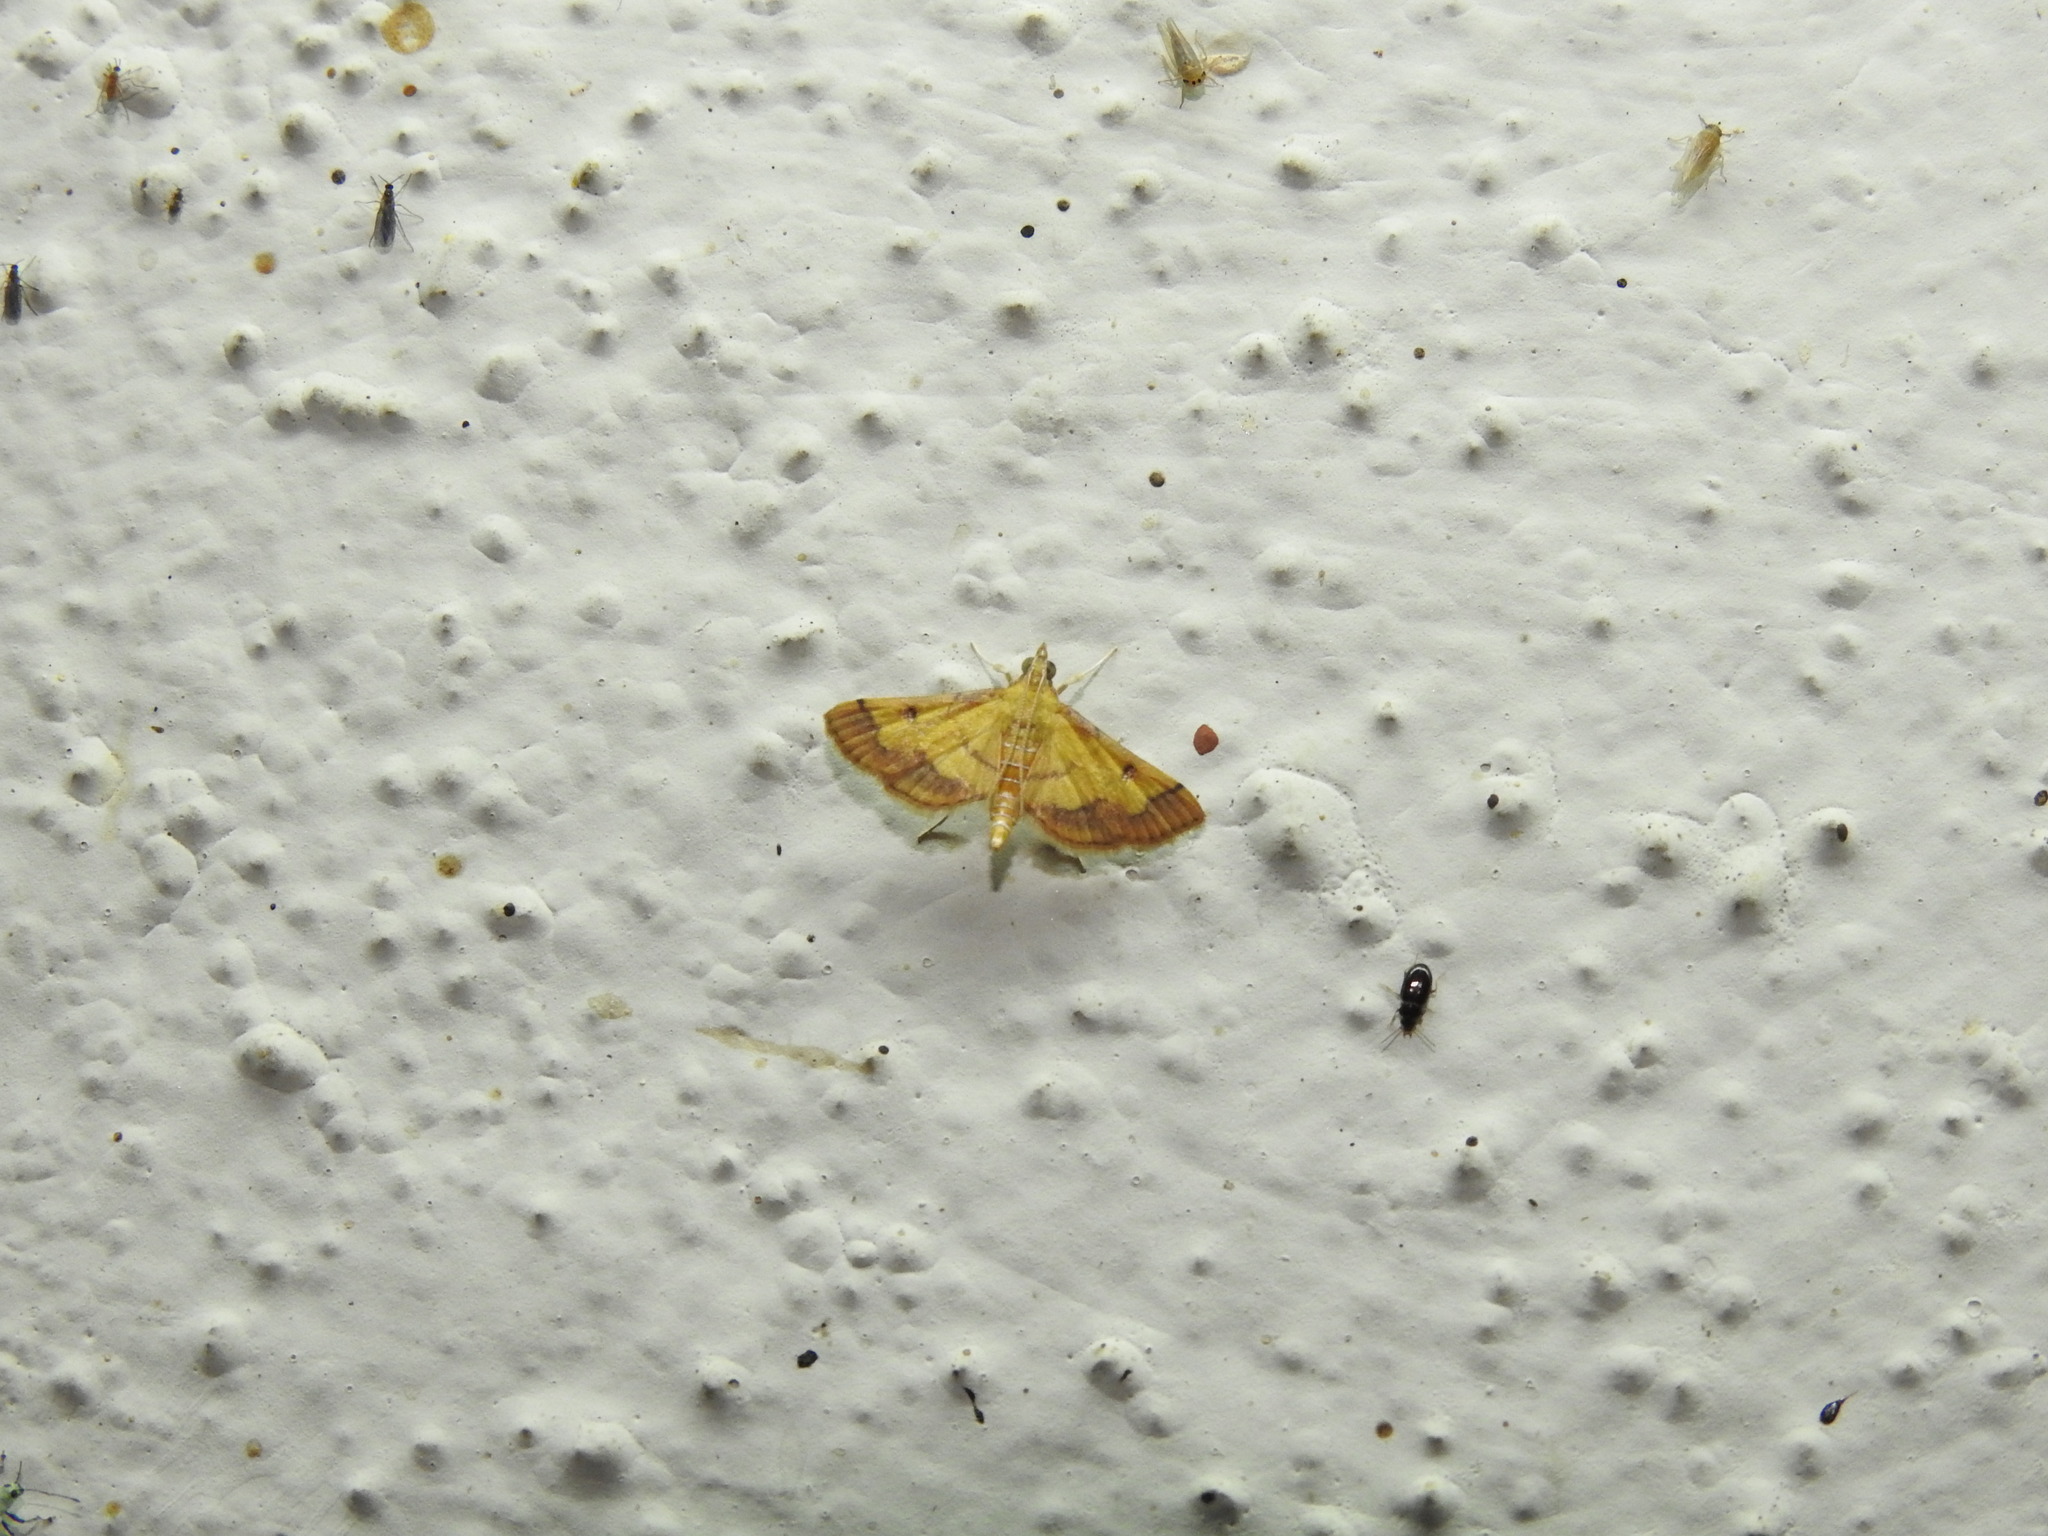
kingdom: Animalia
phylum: Arthropoda
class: Insecta
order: Lepidoptera
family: Crambidae
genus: Ischnurges
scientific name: Ischnurges luteomarginalis
